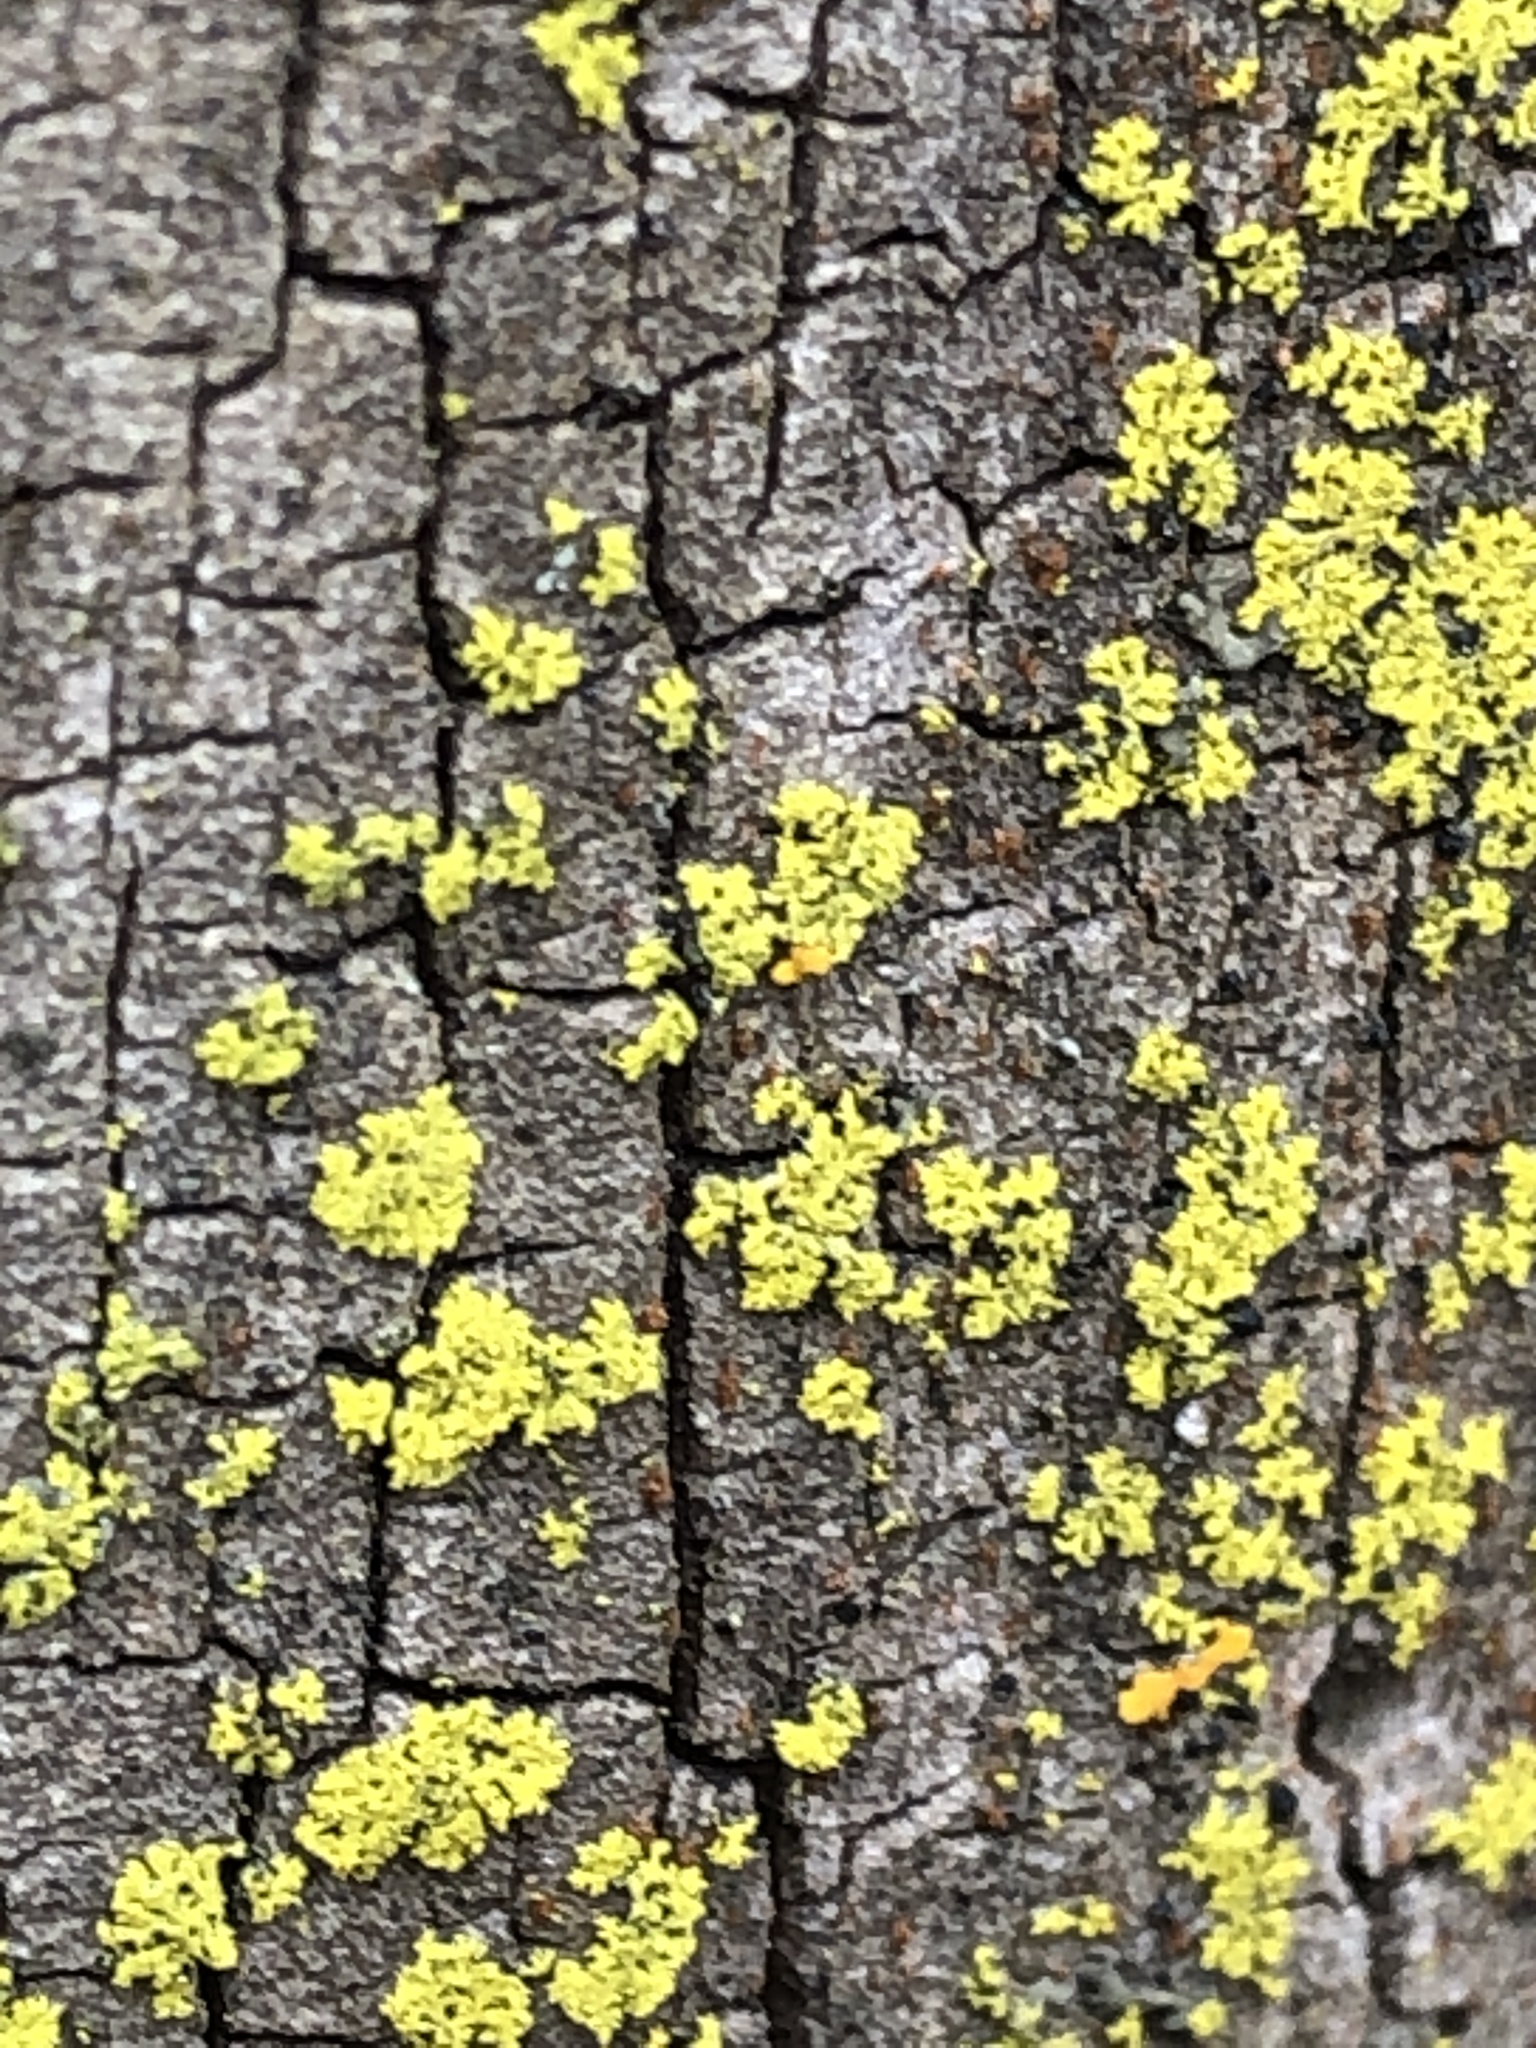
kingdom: Fungi
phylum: Ascomycota
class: Candelariomycetes
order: Candelariales
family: Candelariaceae
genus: Candelaria
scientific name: Candelaria concolor
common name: Candleflame lichen
